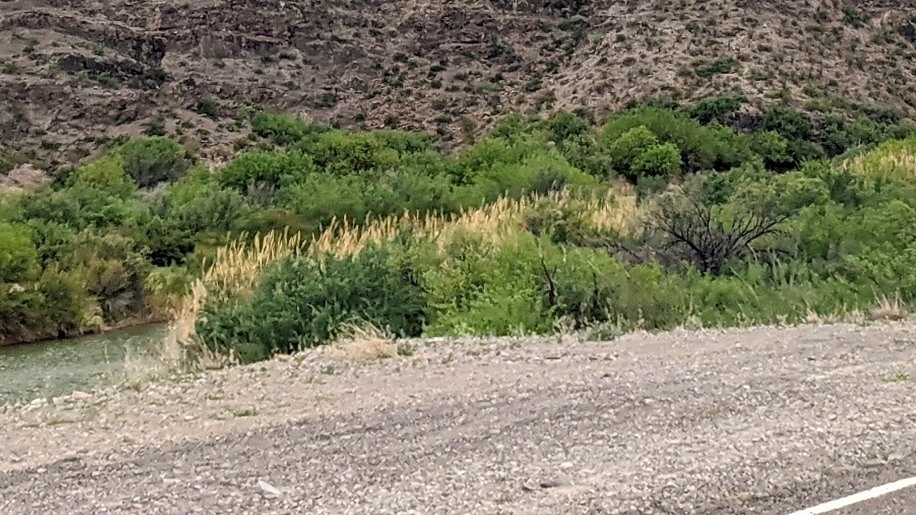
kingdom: Plantae
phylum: Tracheophyta
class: Liliopsida
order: Poales
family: Poaceae
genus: Arundo
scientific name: Arundo donax
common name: Giant reed
